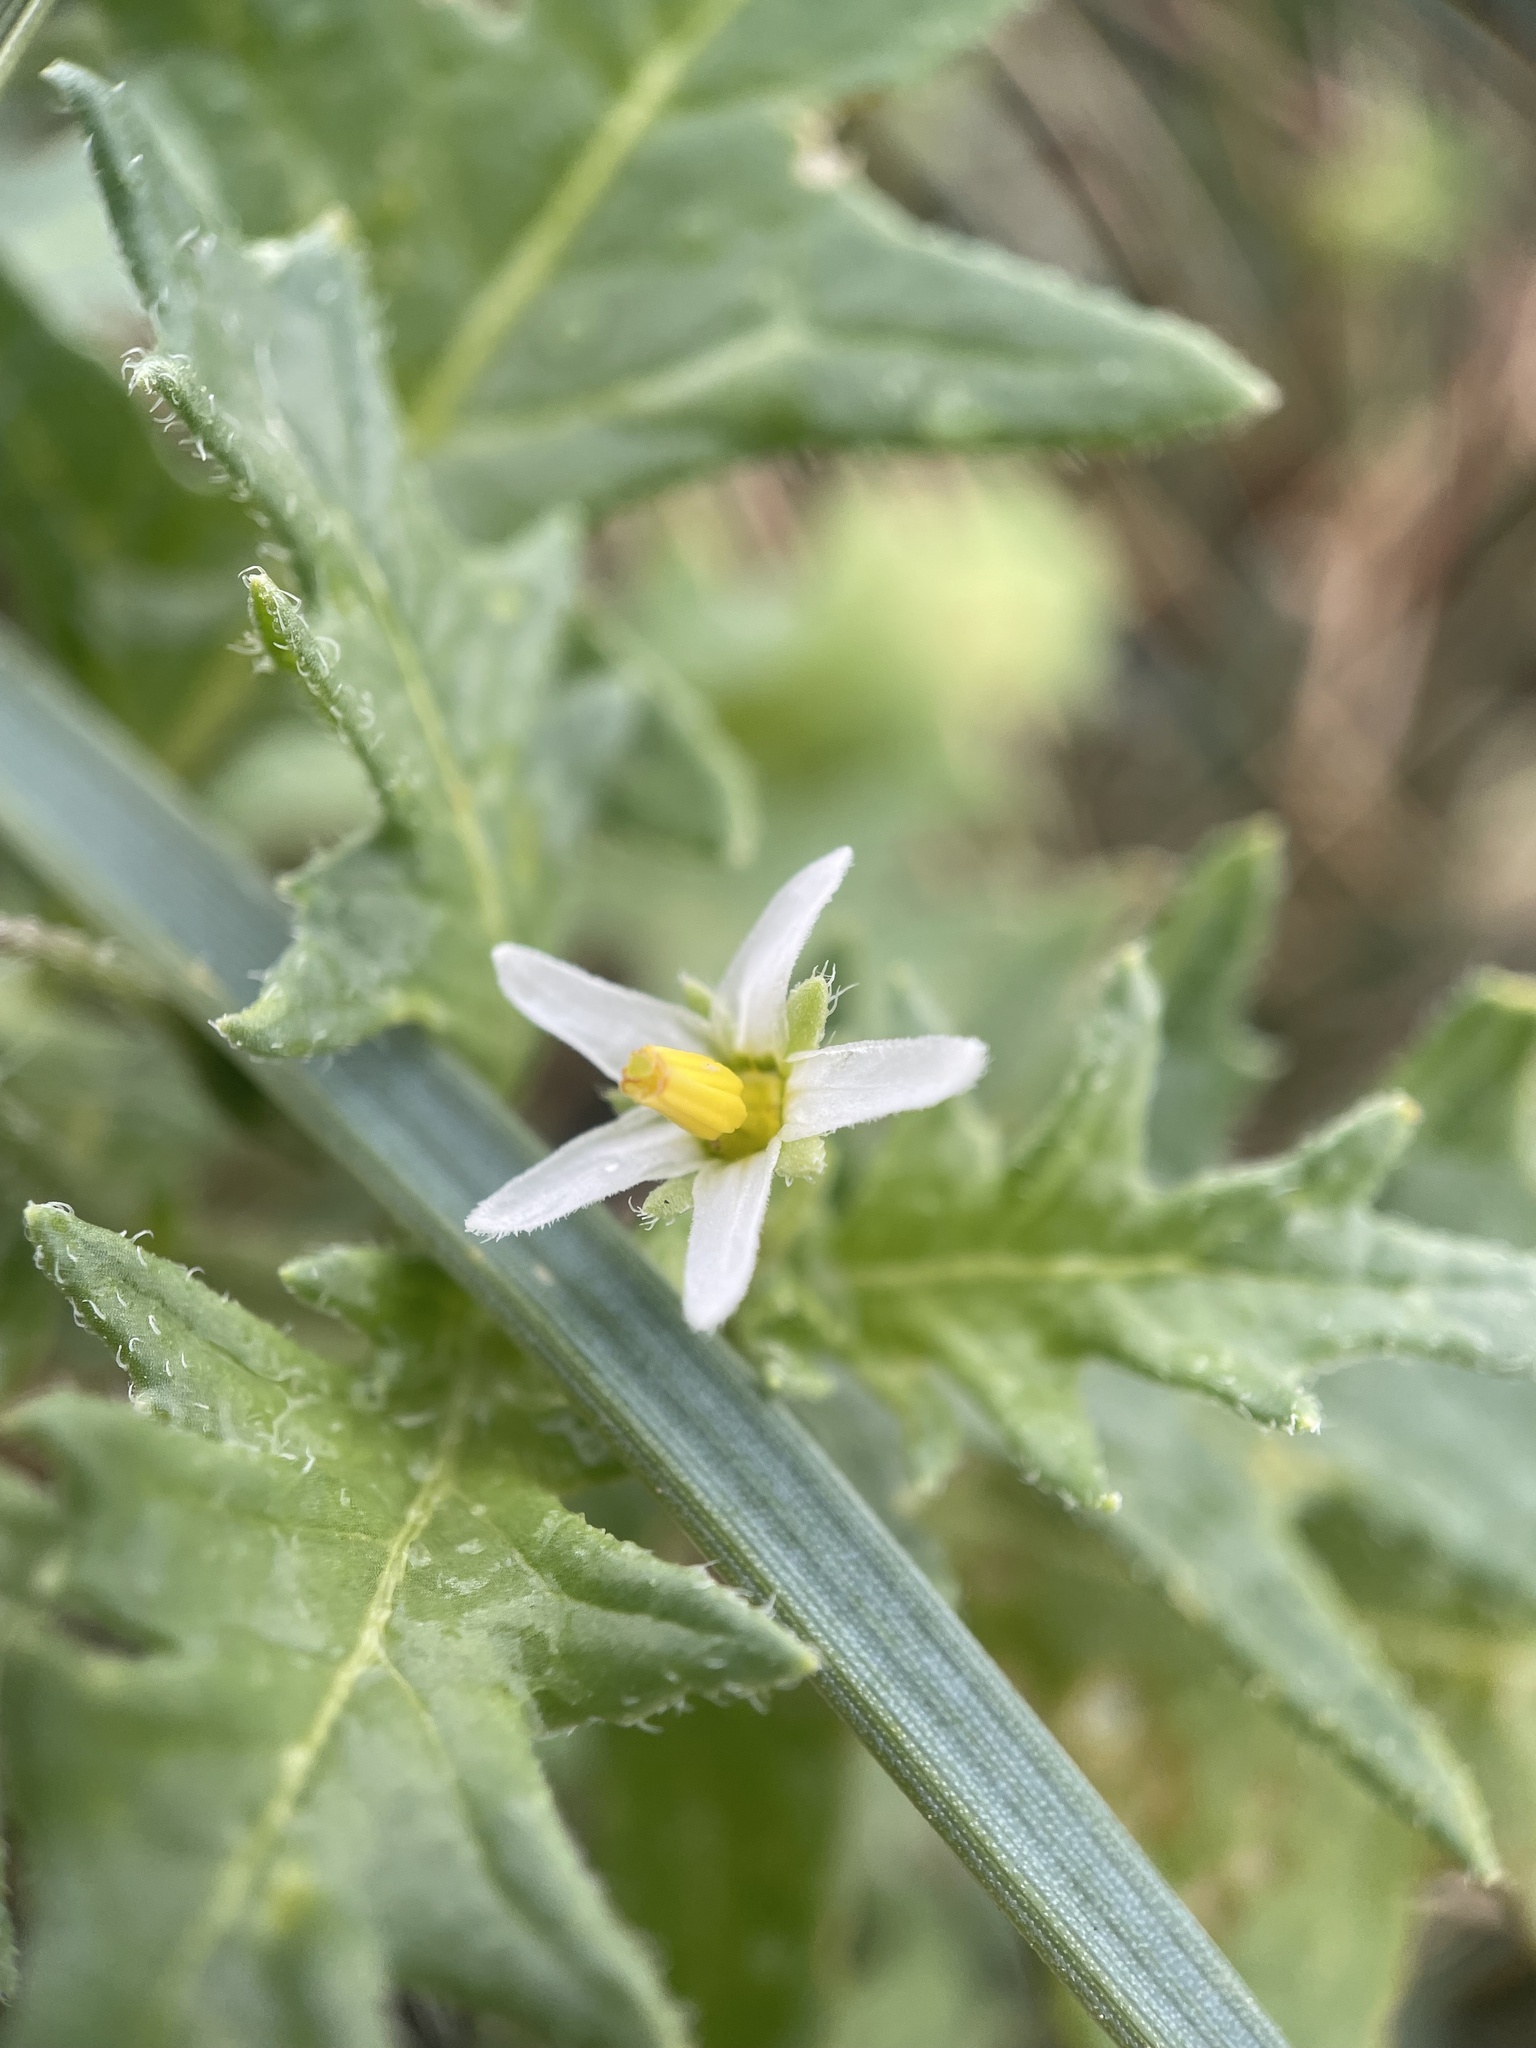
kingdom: Plantae
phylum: Tracheophyta
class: Magnoliopsida
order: Solanales
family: Solanaceae
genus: Solanum
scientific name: Solanum triflorum
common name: Small nightshade
